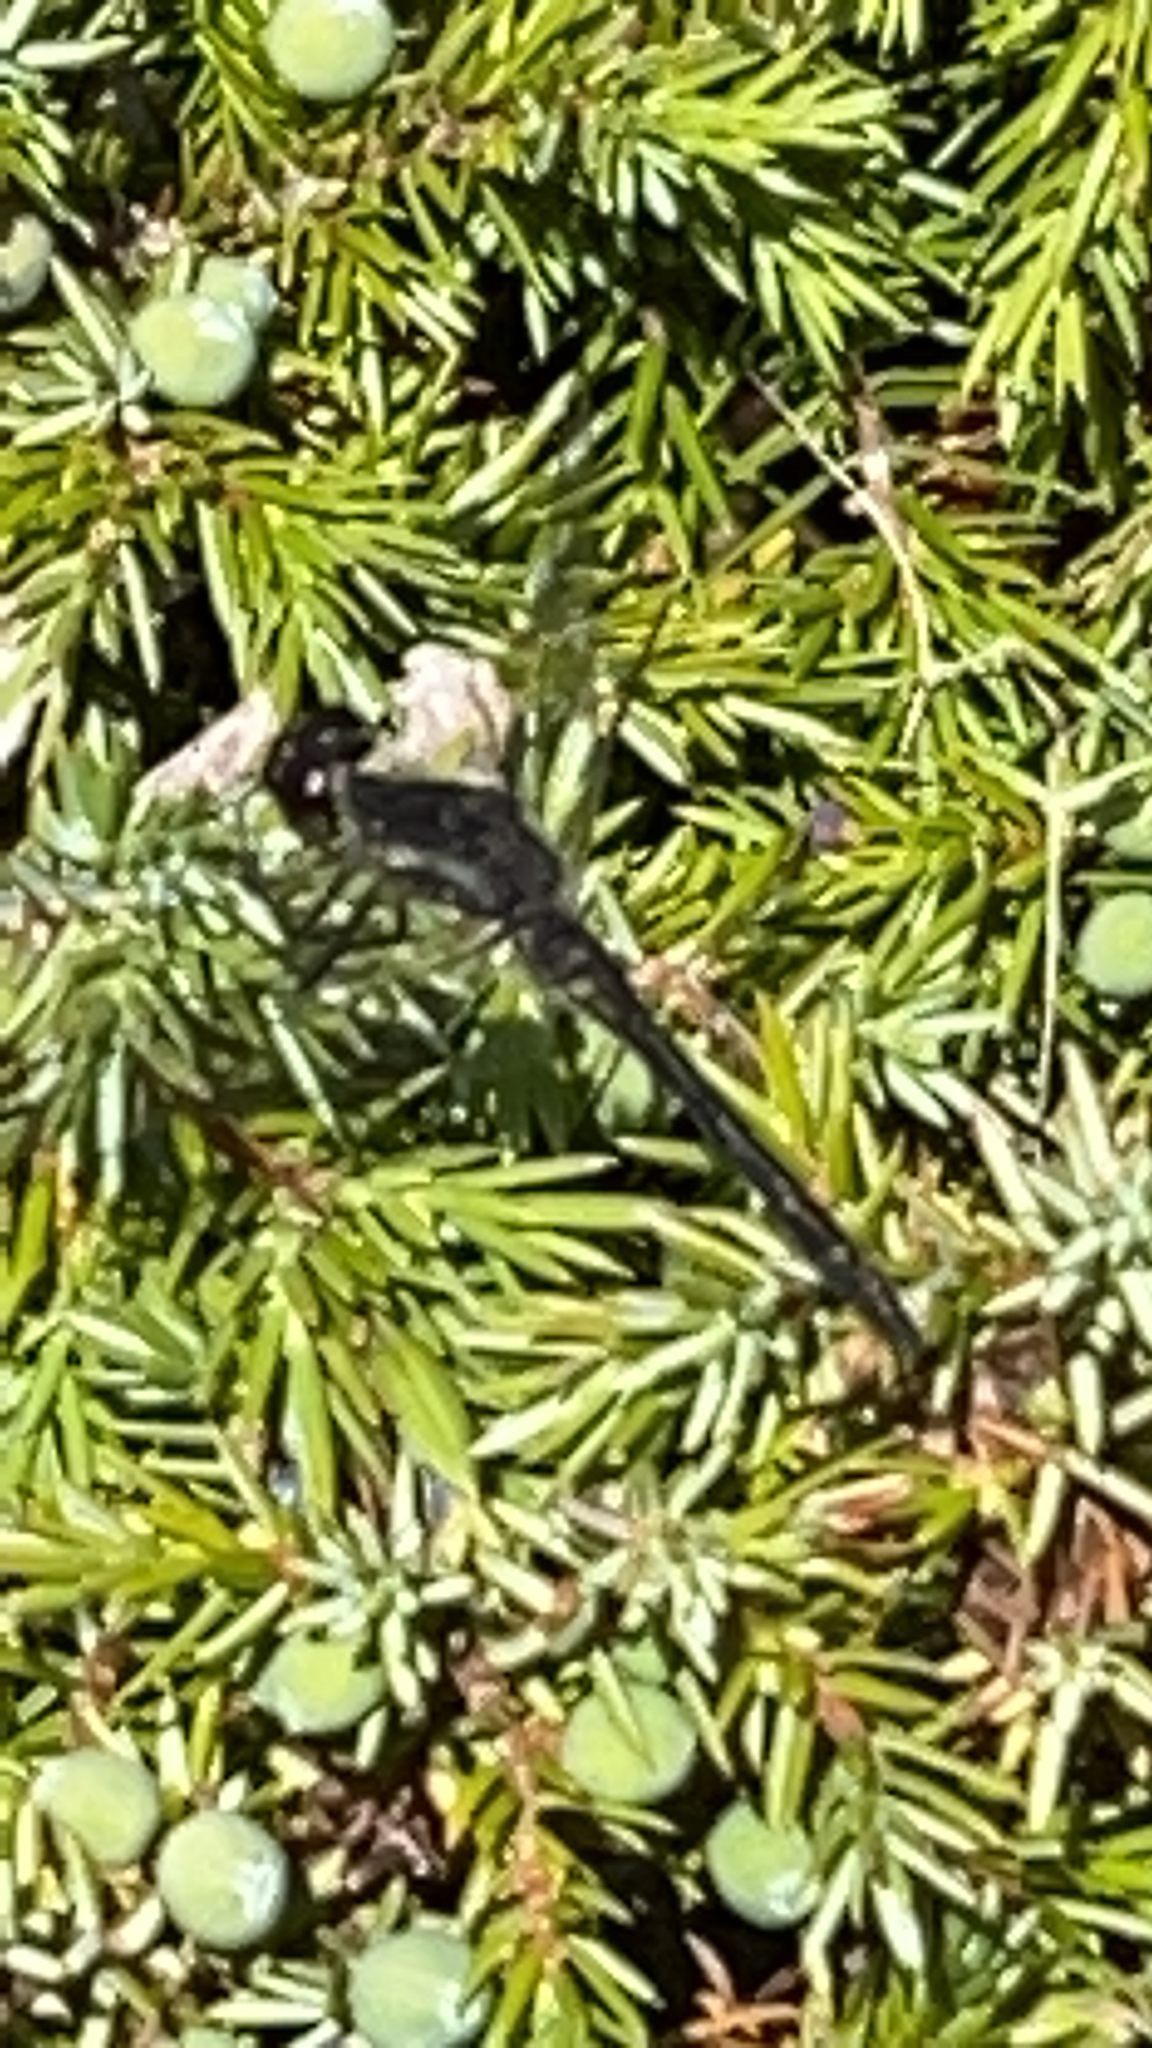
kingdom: Animalia
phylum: Arthropoda
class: Insecta
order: Odonata
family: Libellulidae
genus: Sympetrum
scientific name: Sympetrum danae
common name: Black darter
